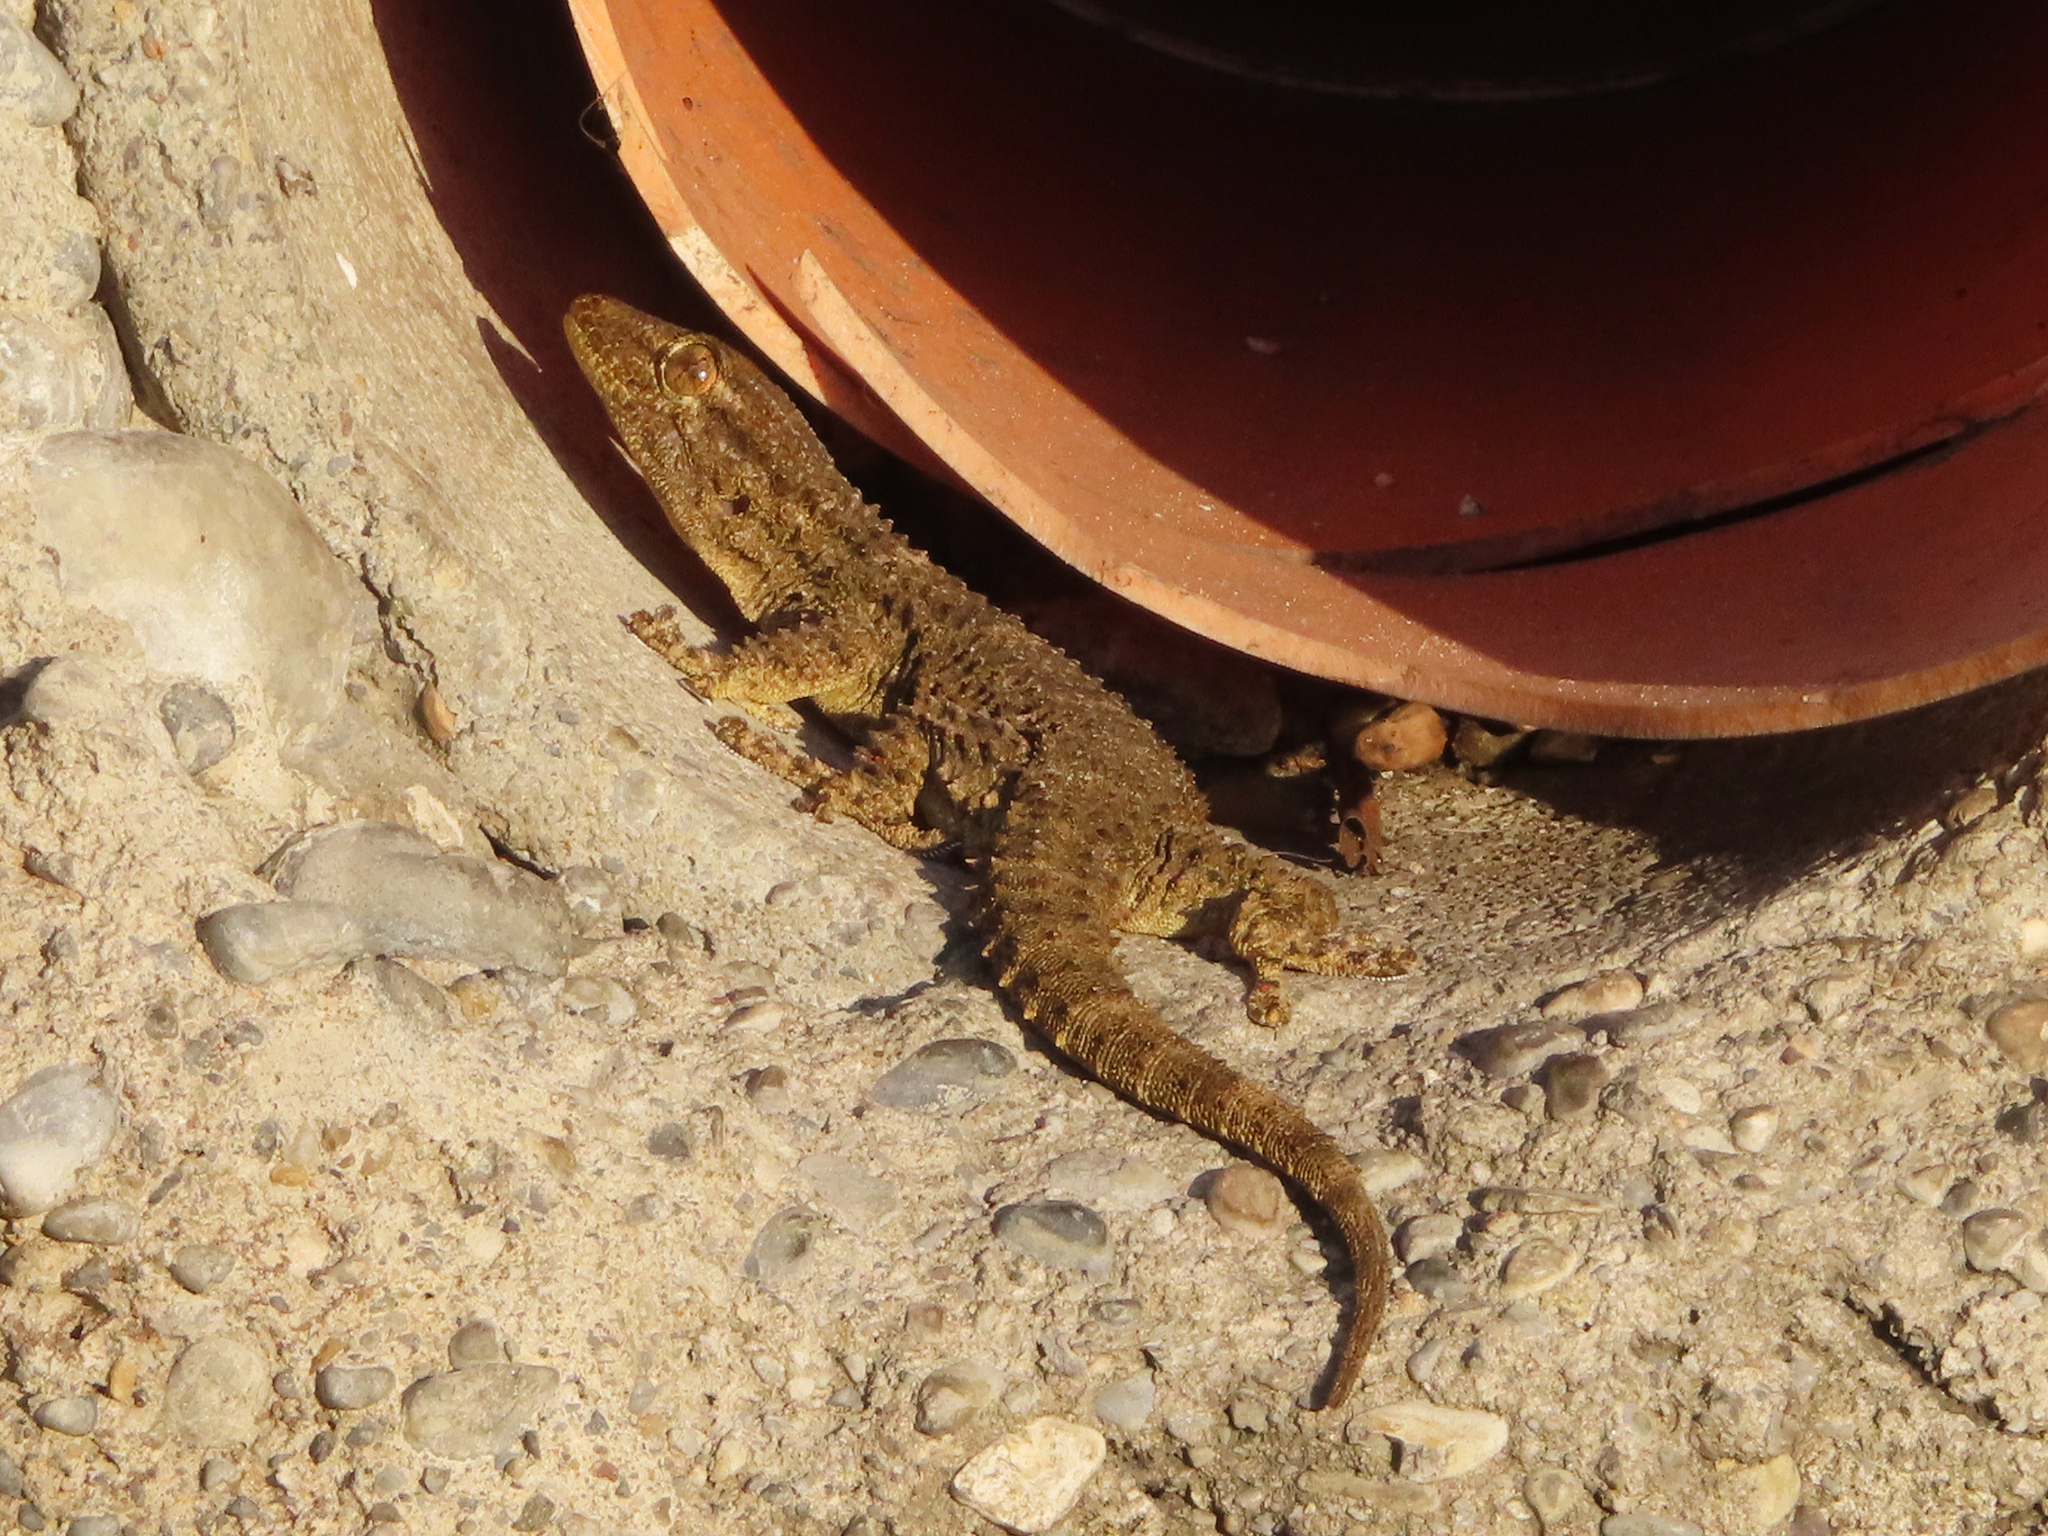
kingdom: Animalia
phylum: Chordata
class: Squamata
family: Phyllodactylidae
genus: Tarentola
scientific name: Tarentola mauritanica
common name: Moorish gecko
